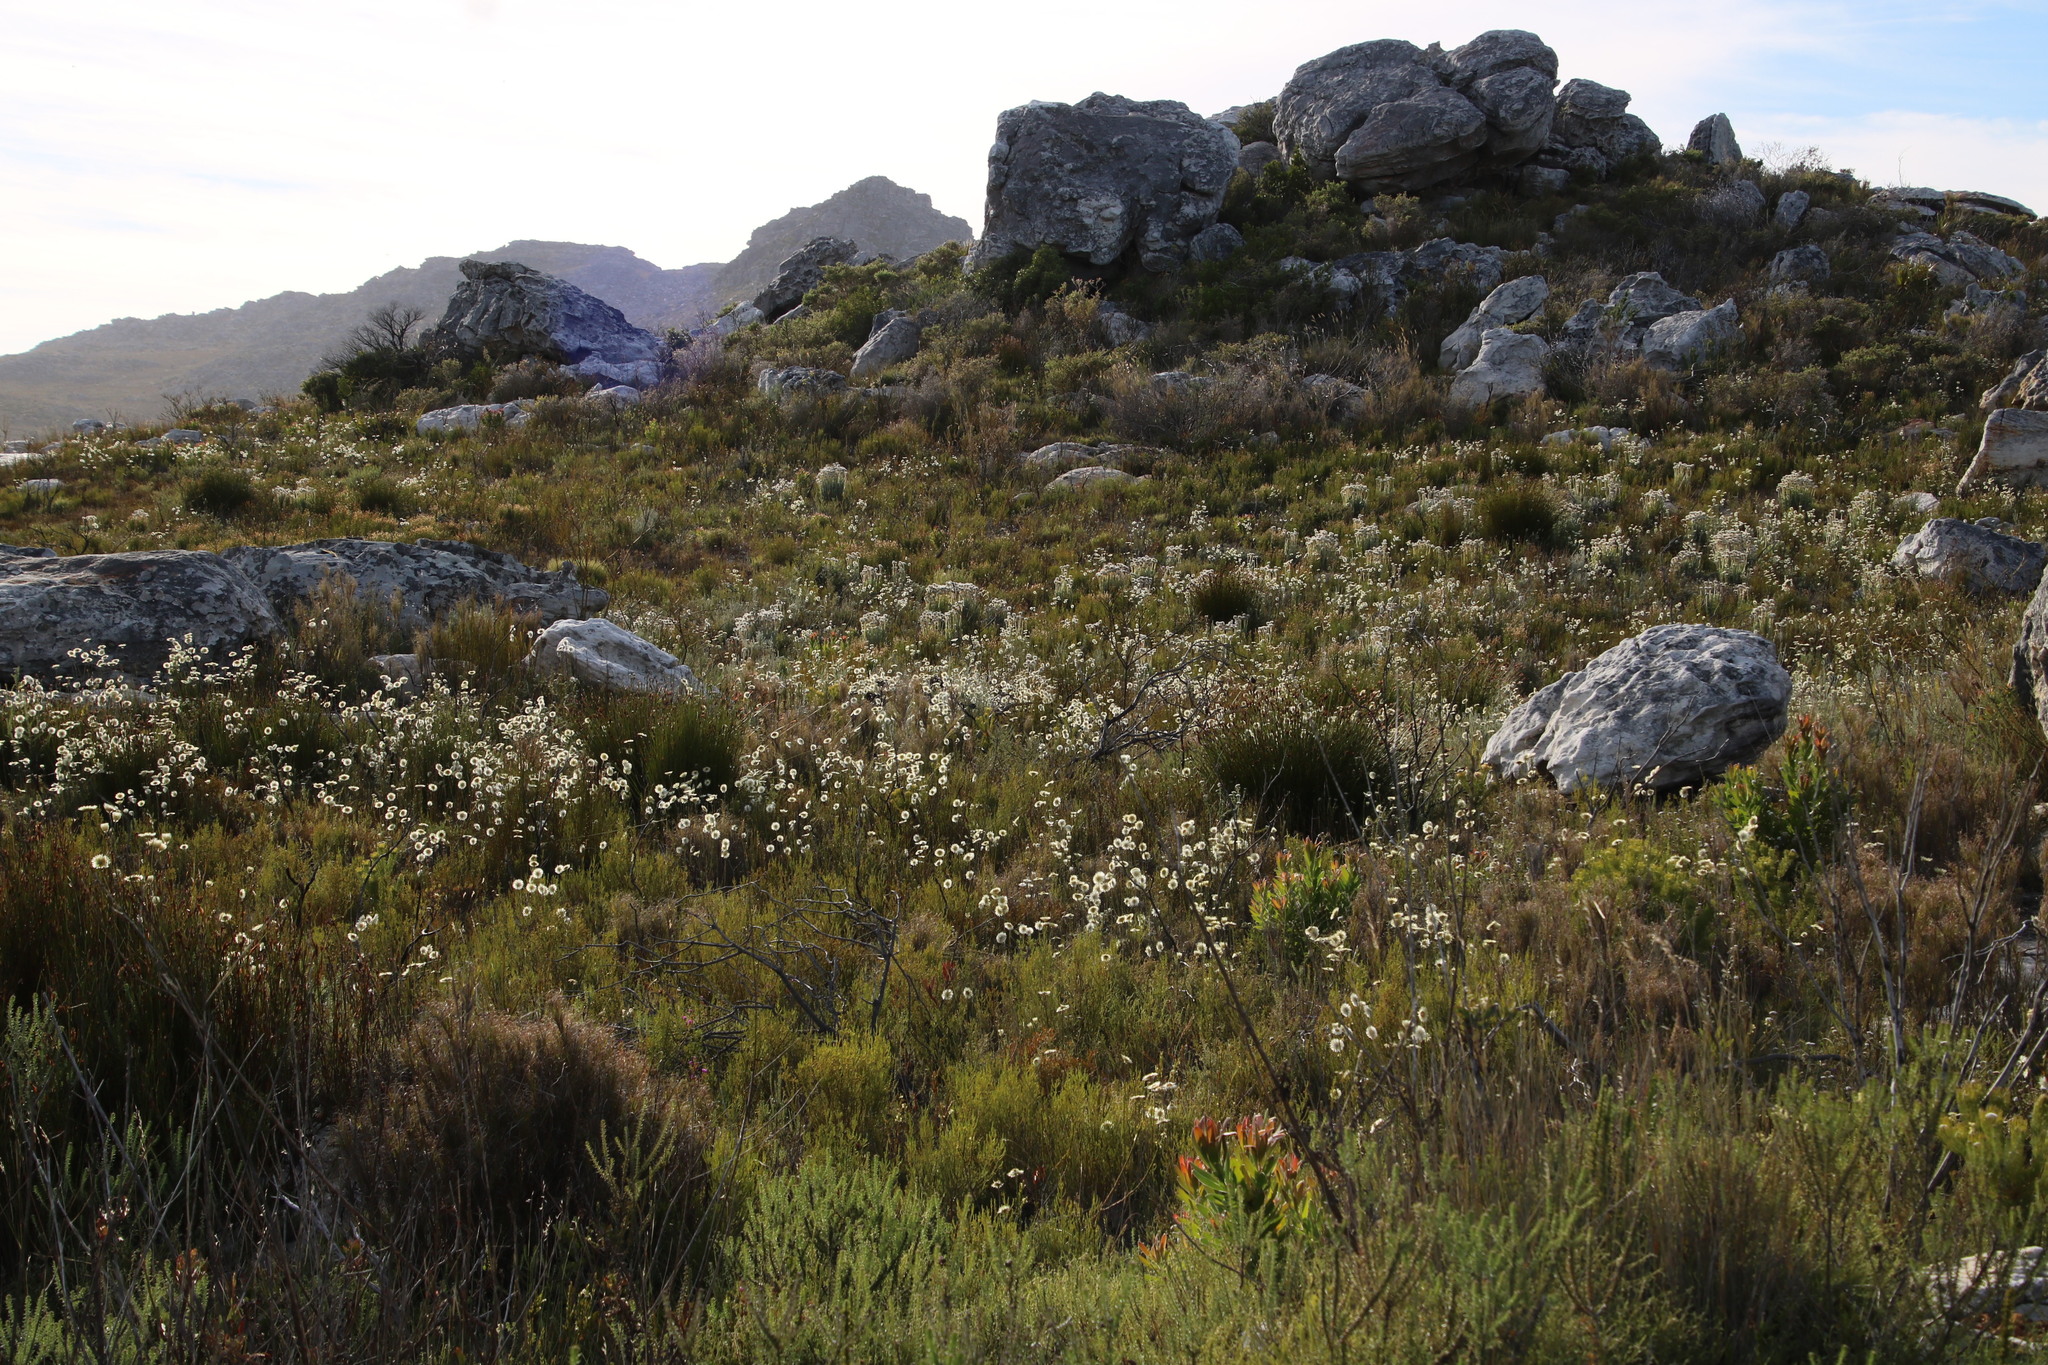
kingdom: Plantae
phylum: Tracheophyta
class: Magnoliopsida
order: Asterales
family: Asteraceae
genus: Edmondia
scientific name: Edmondia sesamoides
